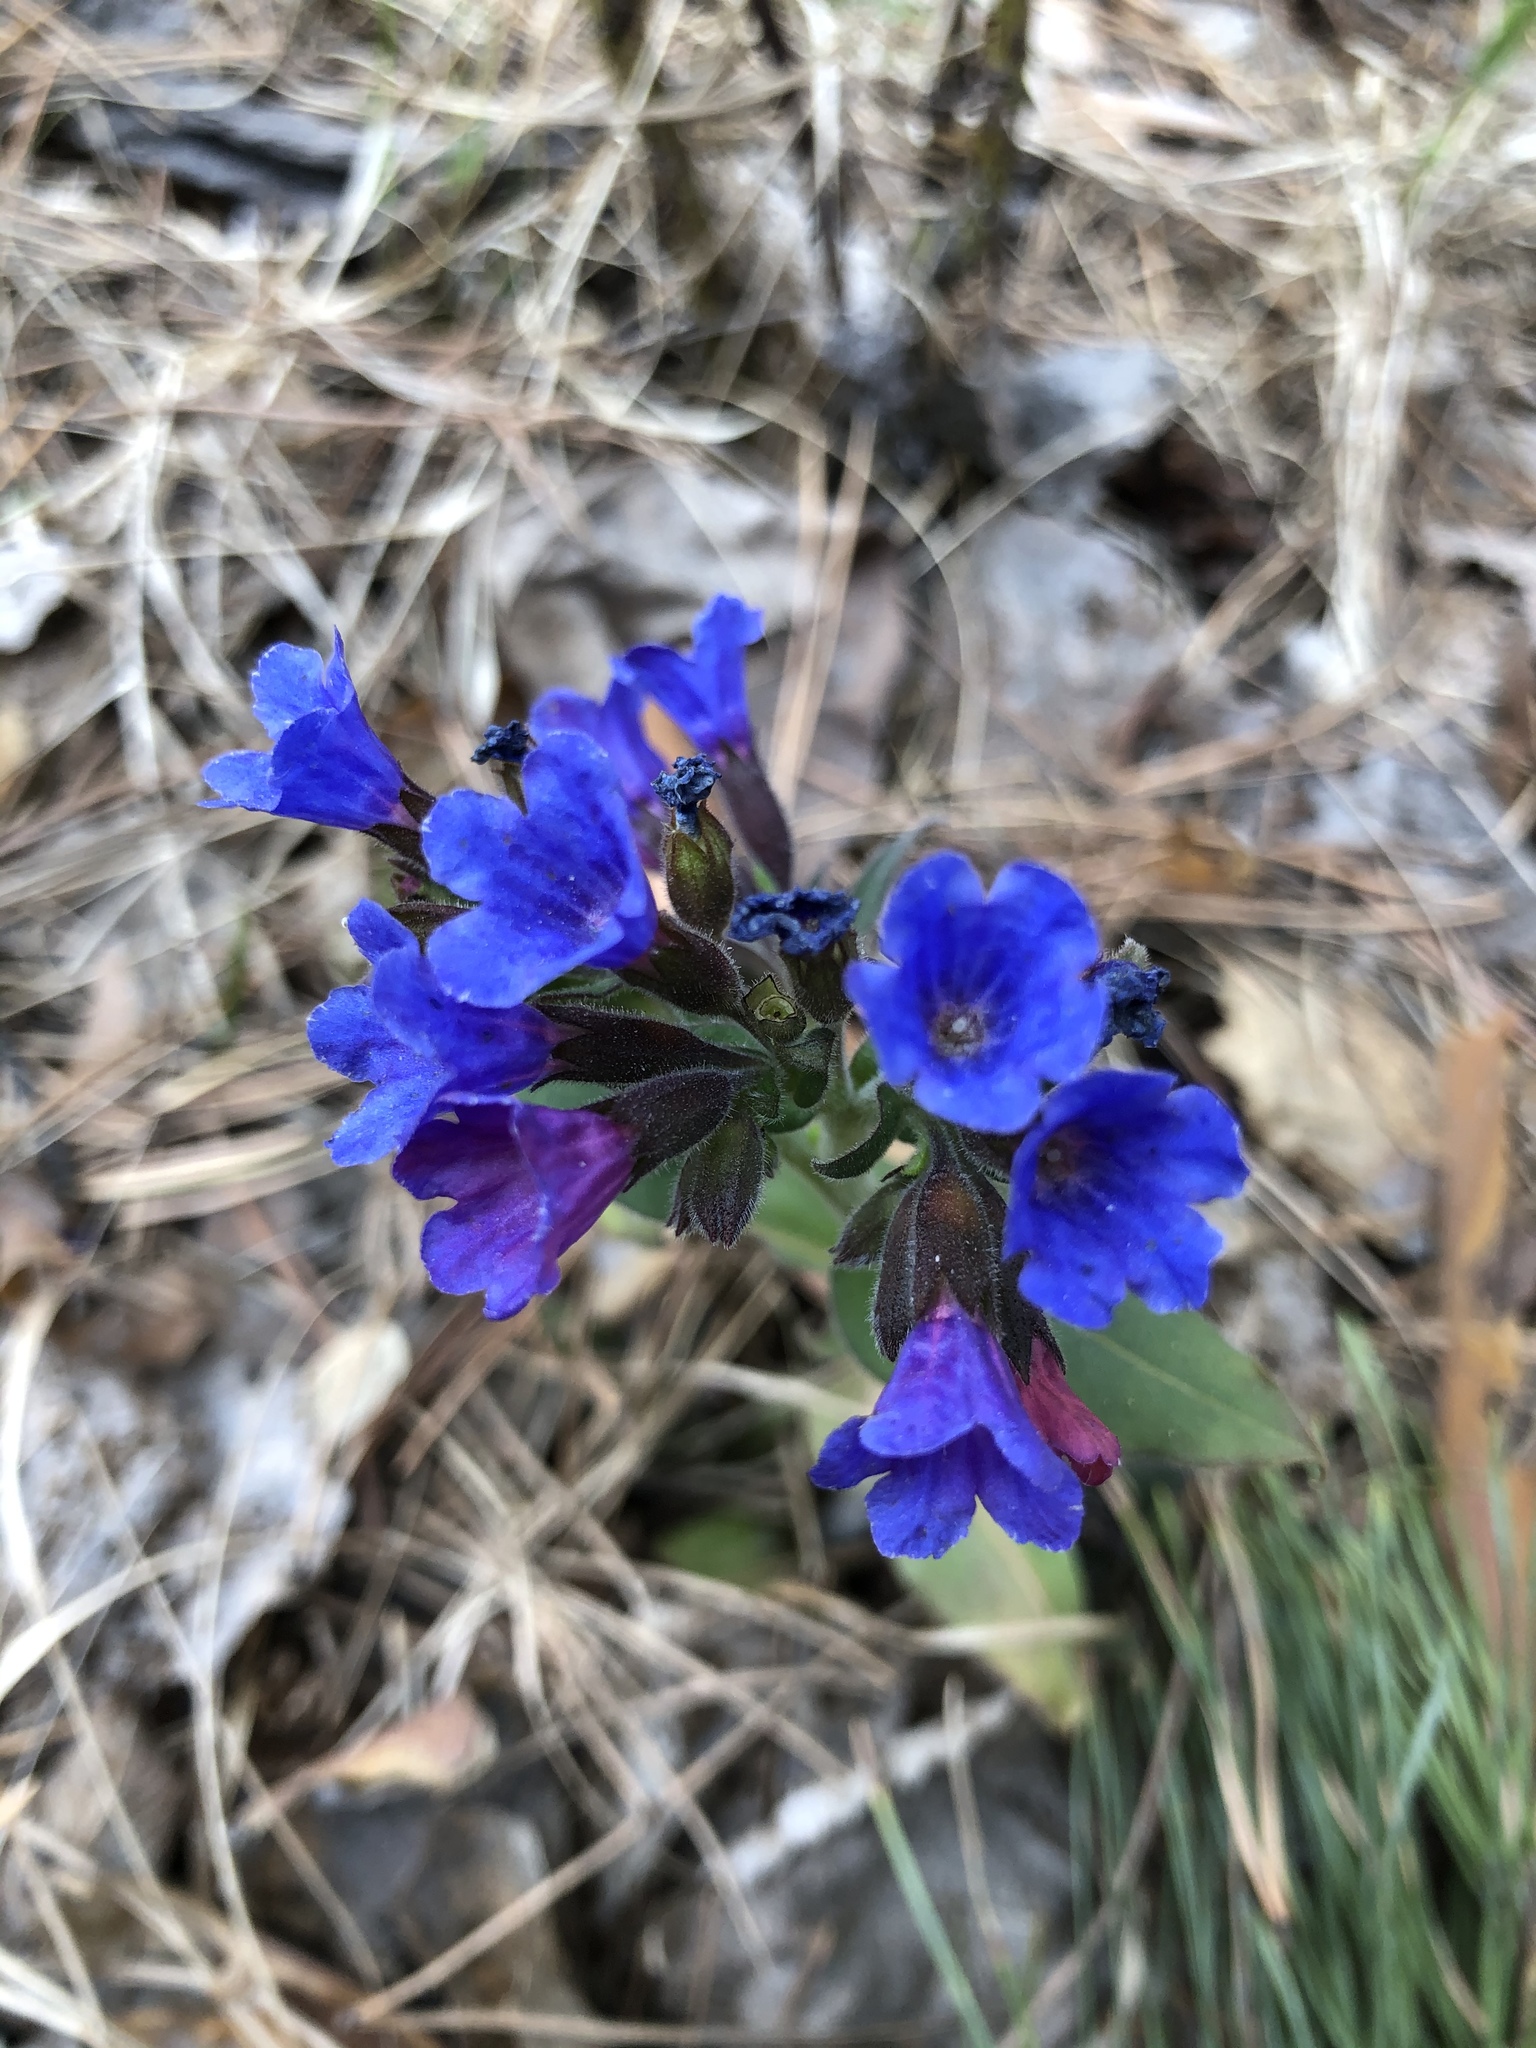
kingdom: Plantae
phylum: Tracheophyta
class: Magnoliopsida
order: Boraginales
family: Boraginaceae
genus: Pulmonaria
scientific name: Pulmonaria mollis
